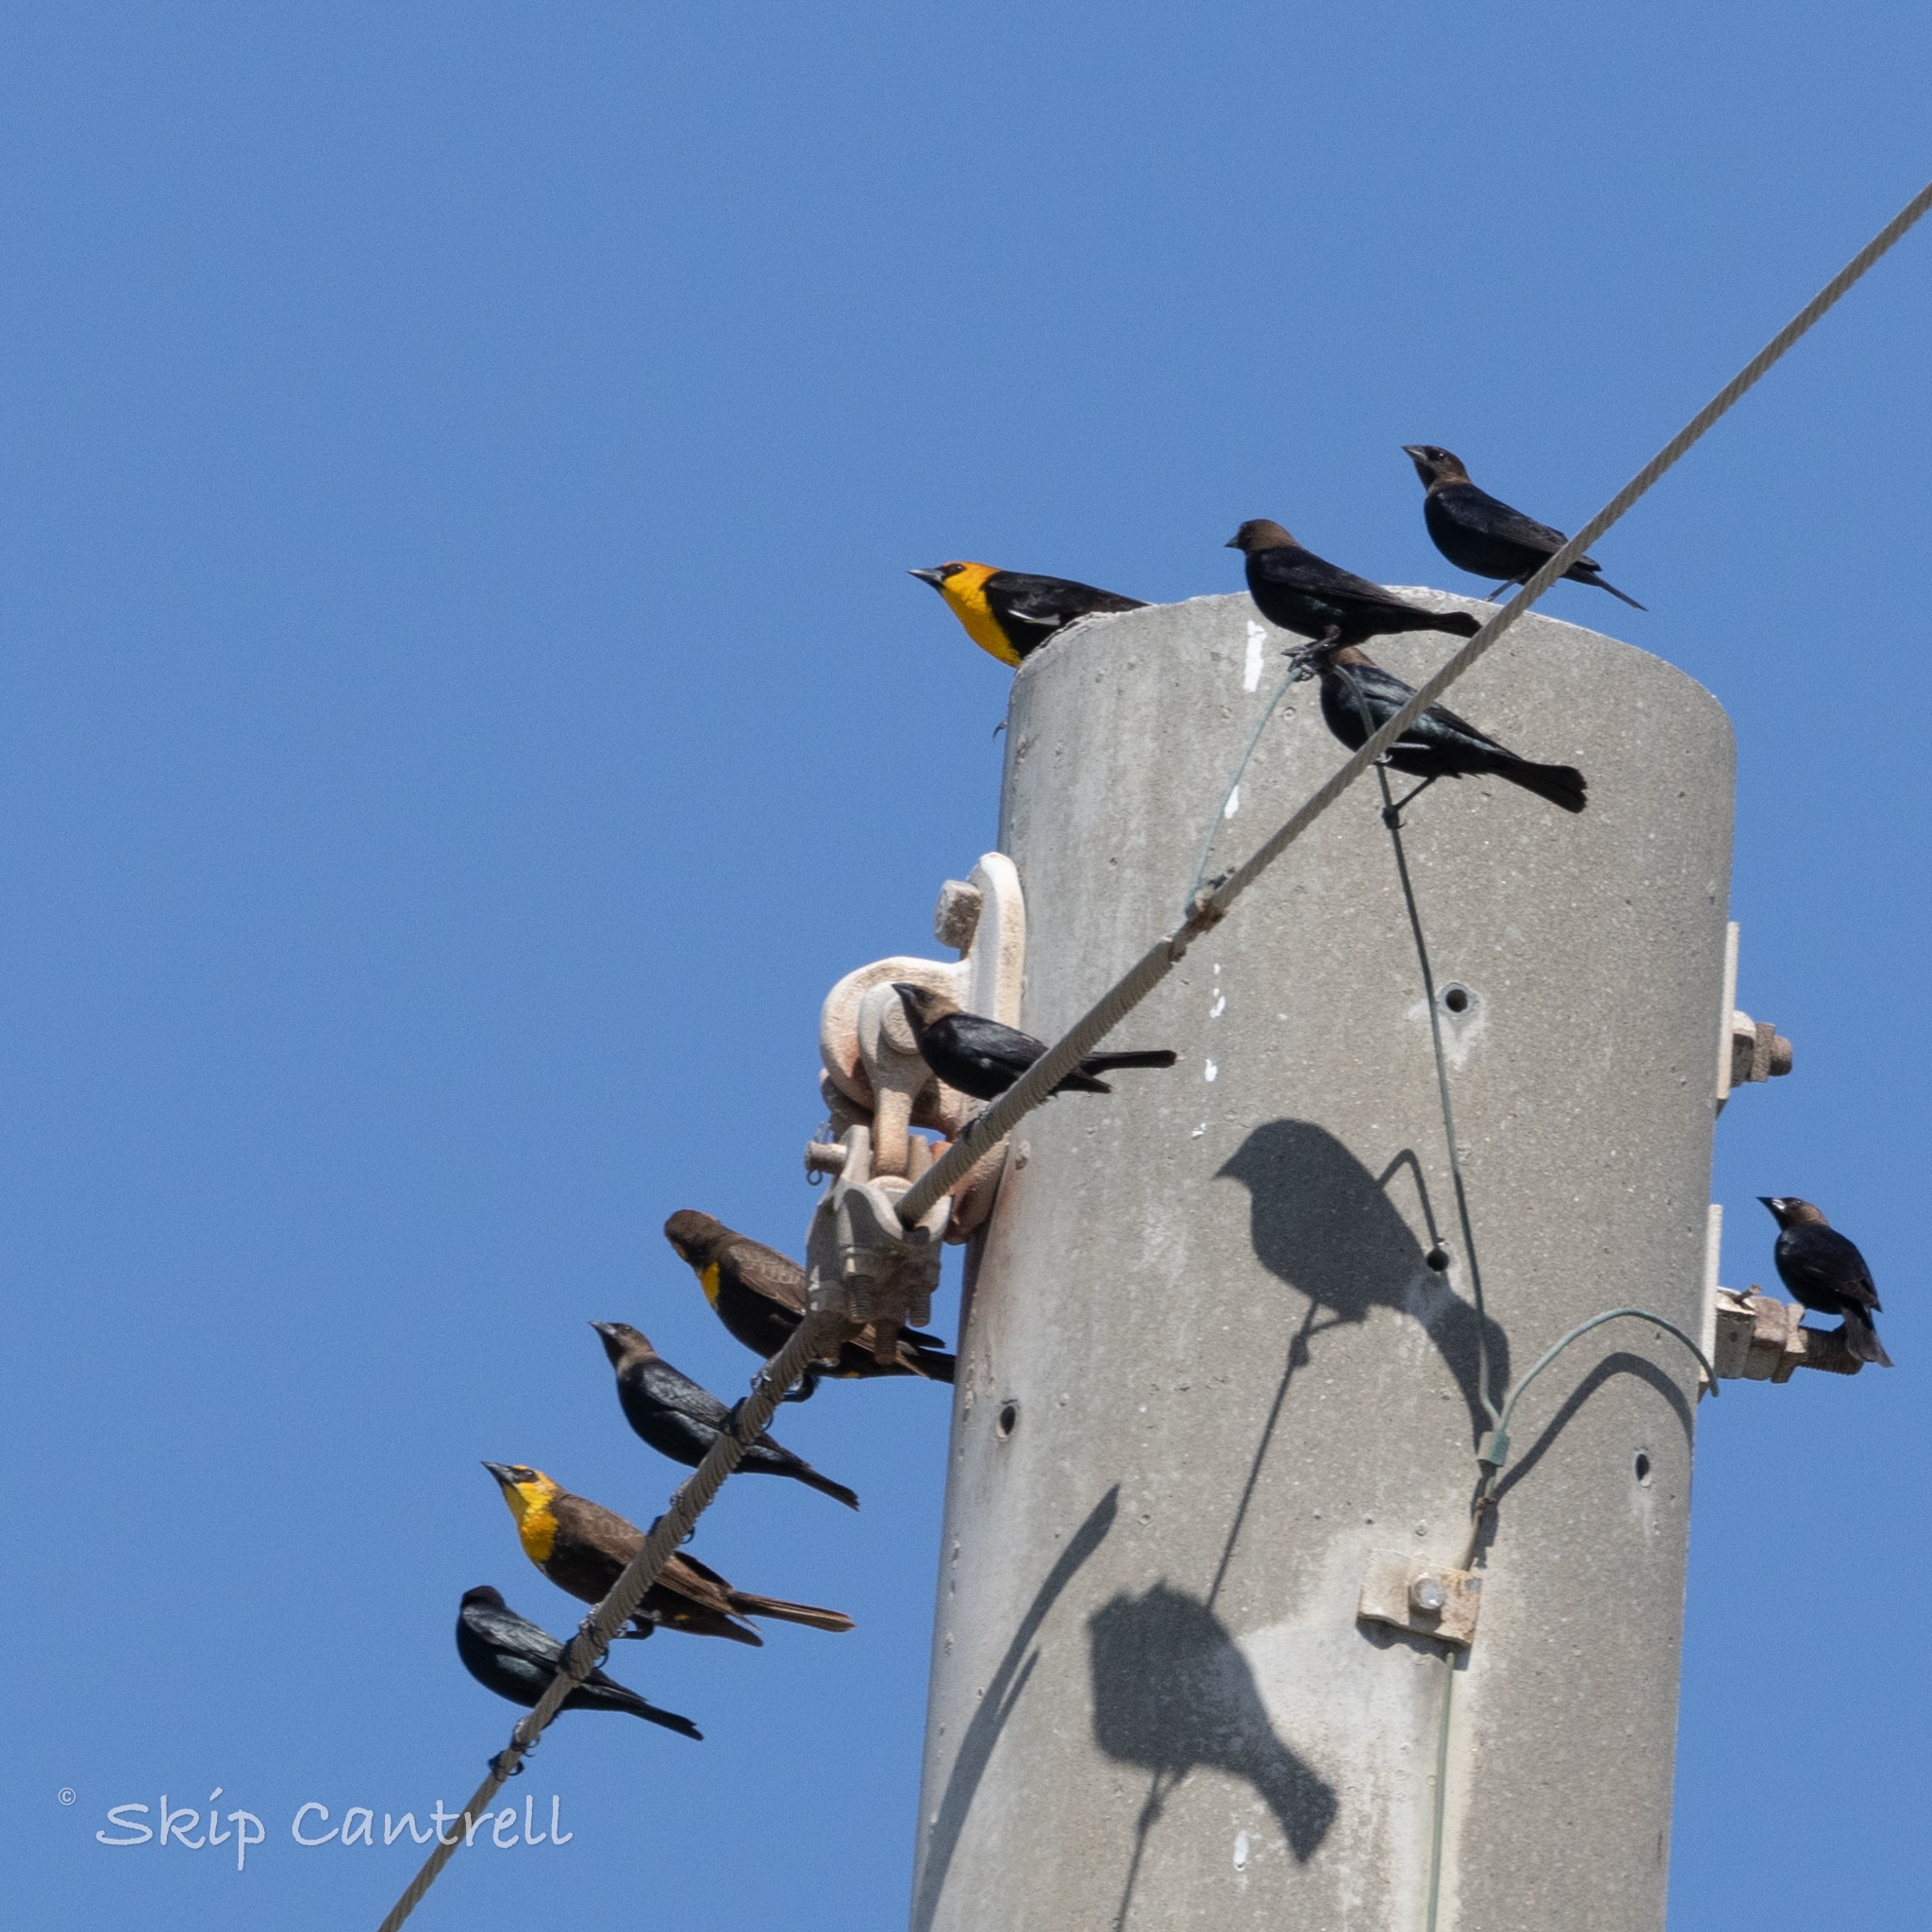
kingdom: Animalia
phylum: Chordata
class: Aves
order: Passeriformes
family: Icteridae
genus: Xanthocephalus
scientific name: Xanthocephalus xanthocephalus
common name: Yellow-headed blackbird
